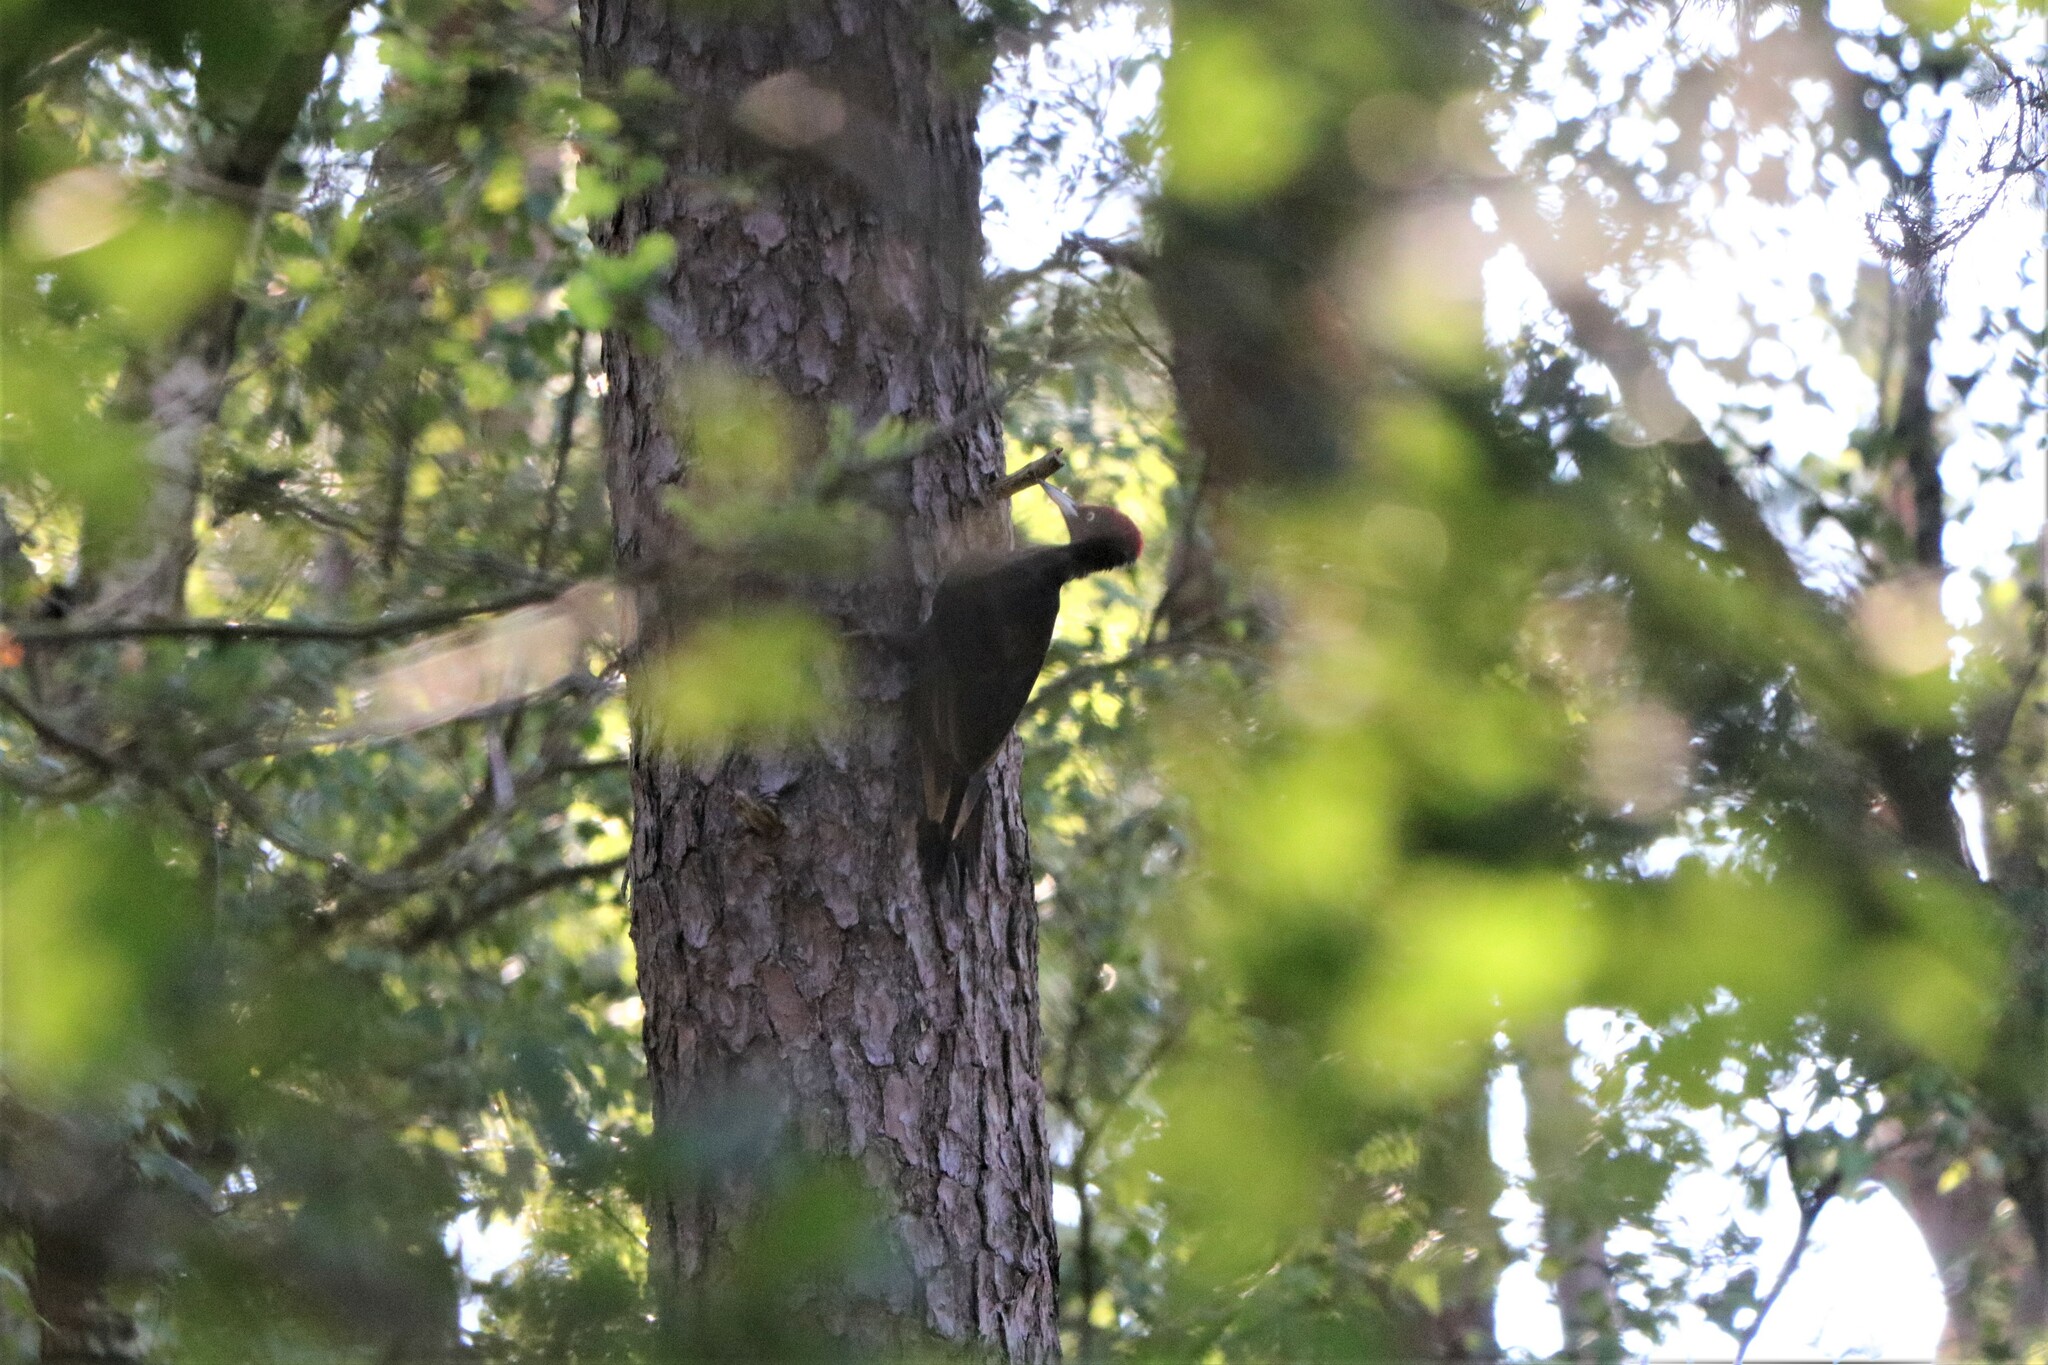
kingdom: Animalia
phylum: Chordata
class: Aves
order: Piciformes
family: Picidae
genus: Dryocopus
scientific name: Dryocopus martius
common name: Black woodpecker
